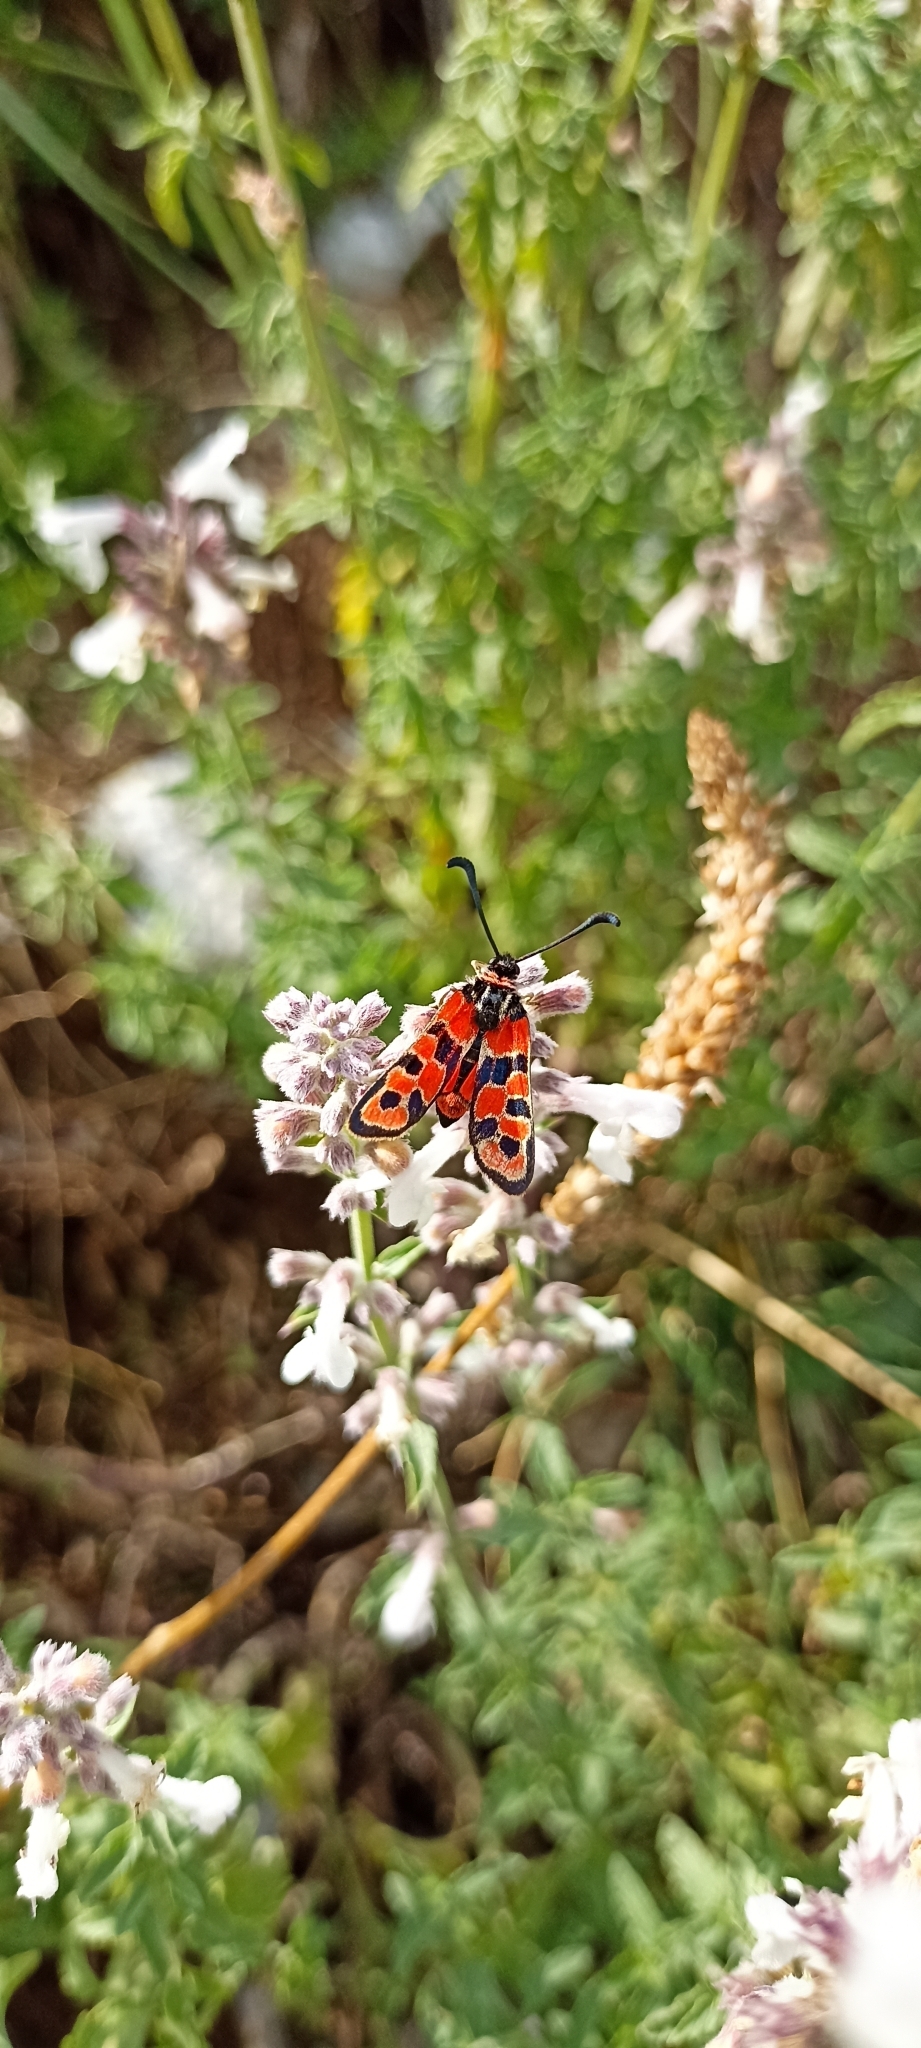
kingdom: Animalia
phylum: Arthropoda
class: Insecta
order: Lepidoptera
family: Zygaenidae
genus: Zygaena
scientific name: Zygaena fausta
